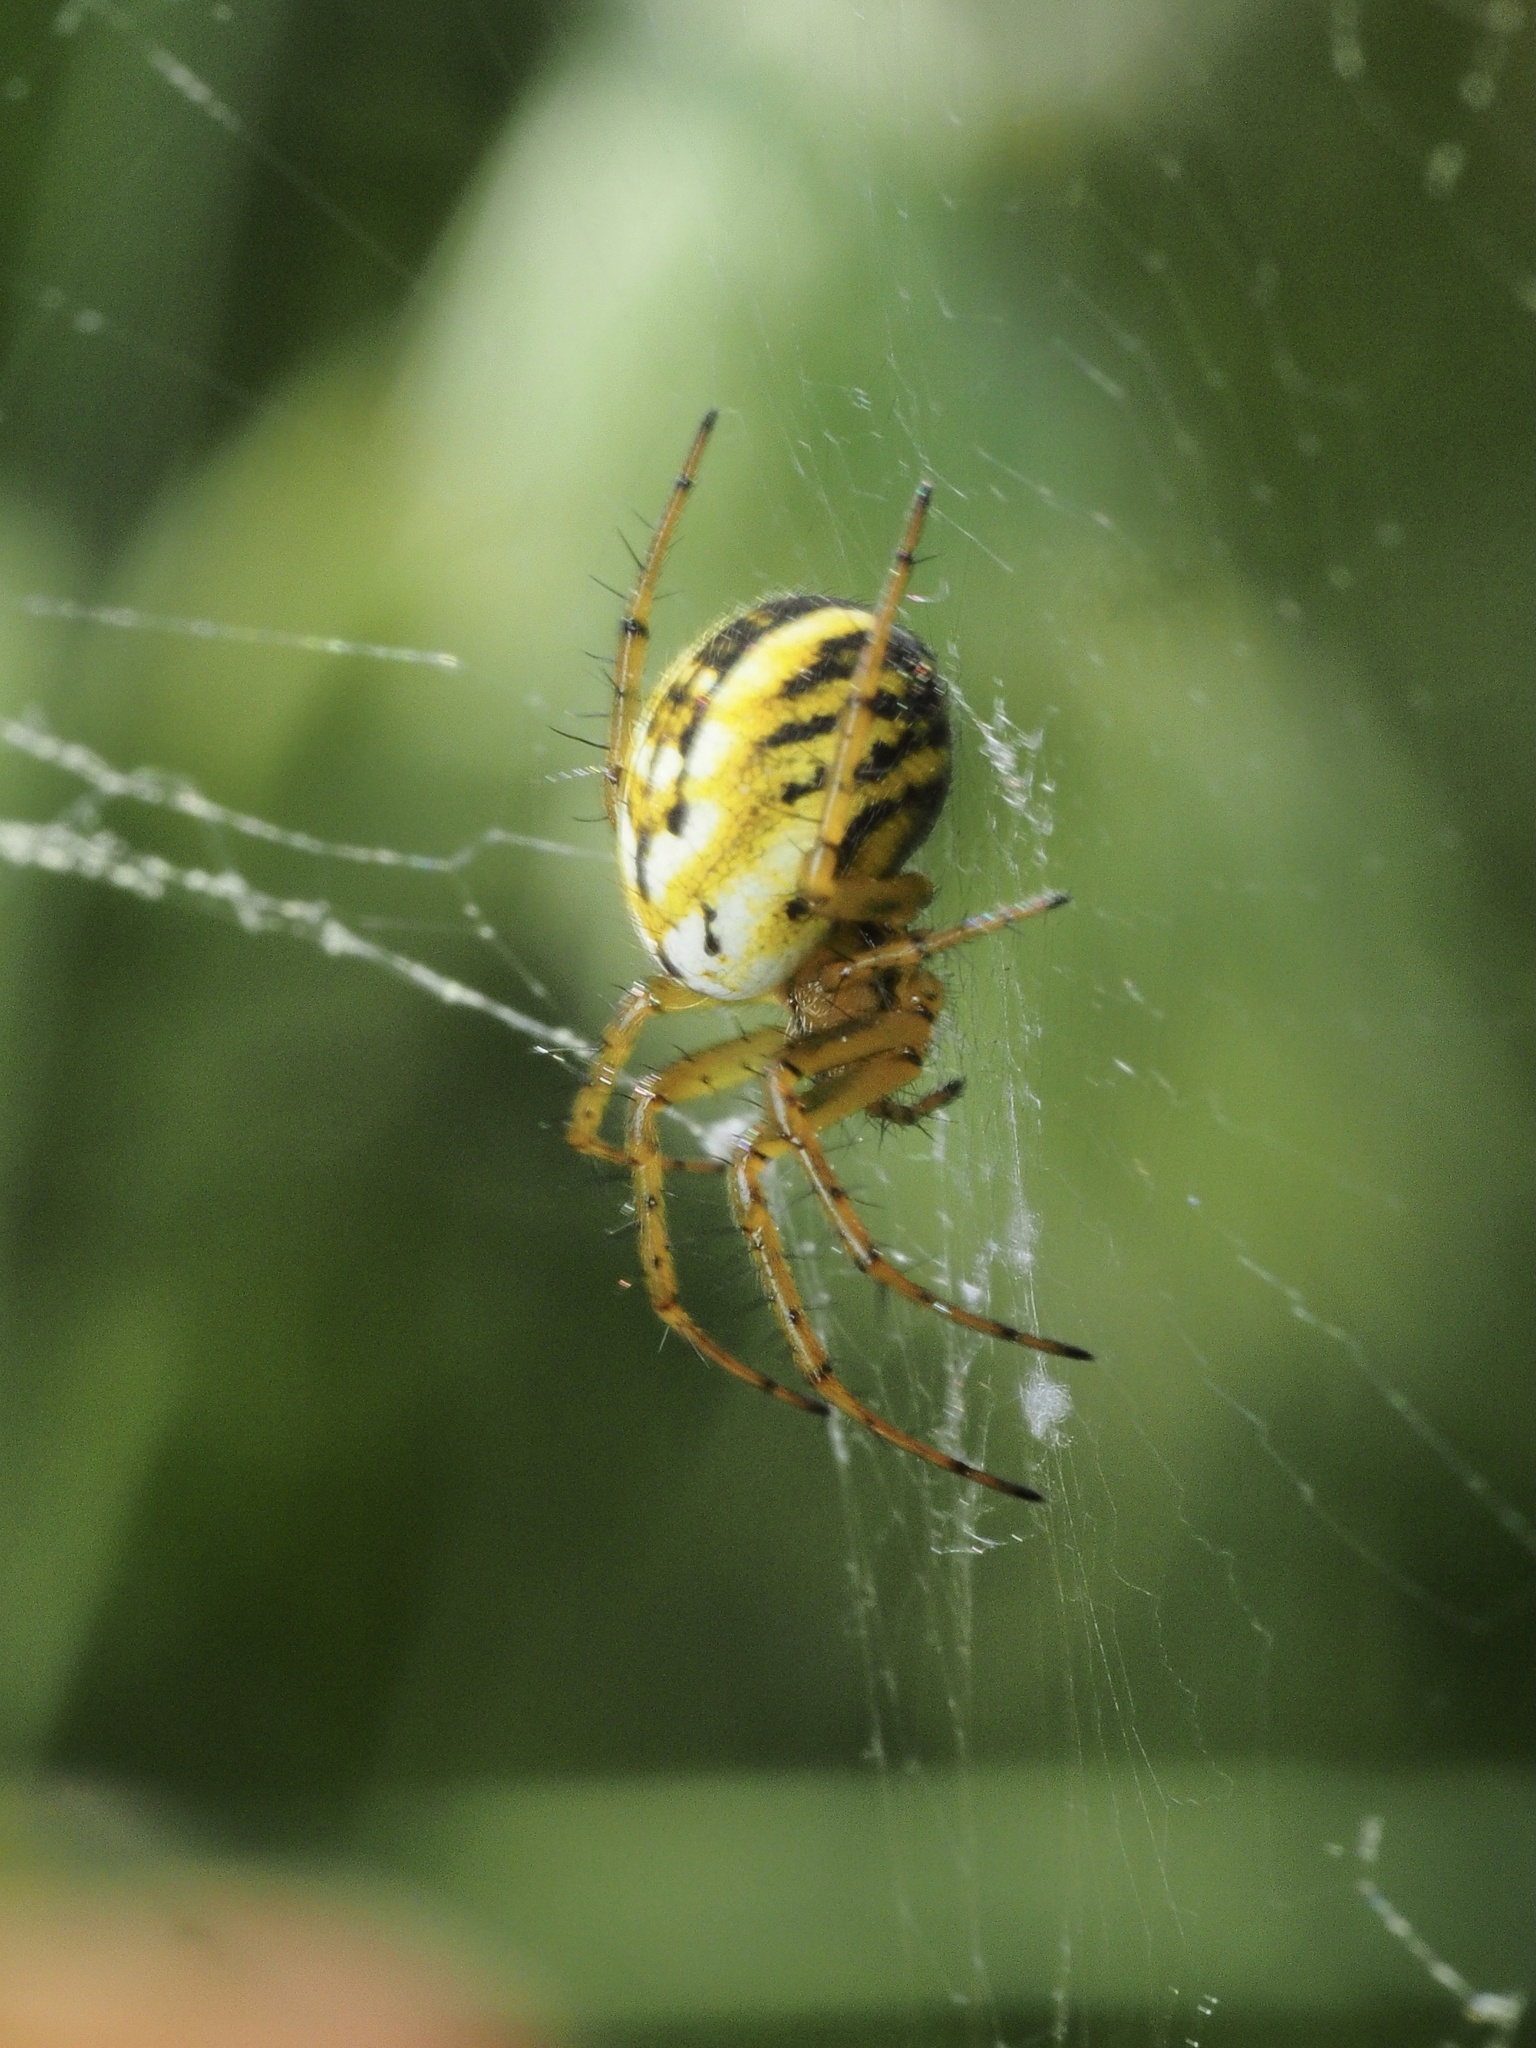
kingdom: Animalia
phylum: Arthropoda
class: Arachnida
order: Araneae
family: Araneidae
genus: Mangora
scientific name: Mangora acalypha
